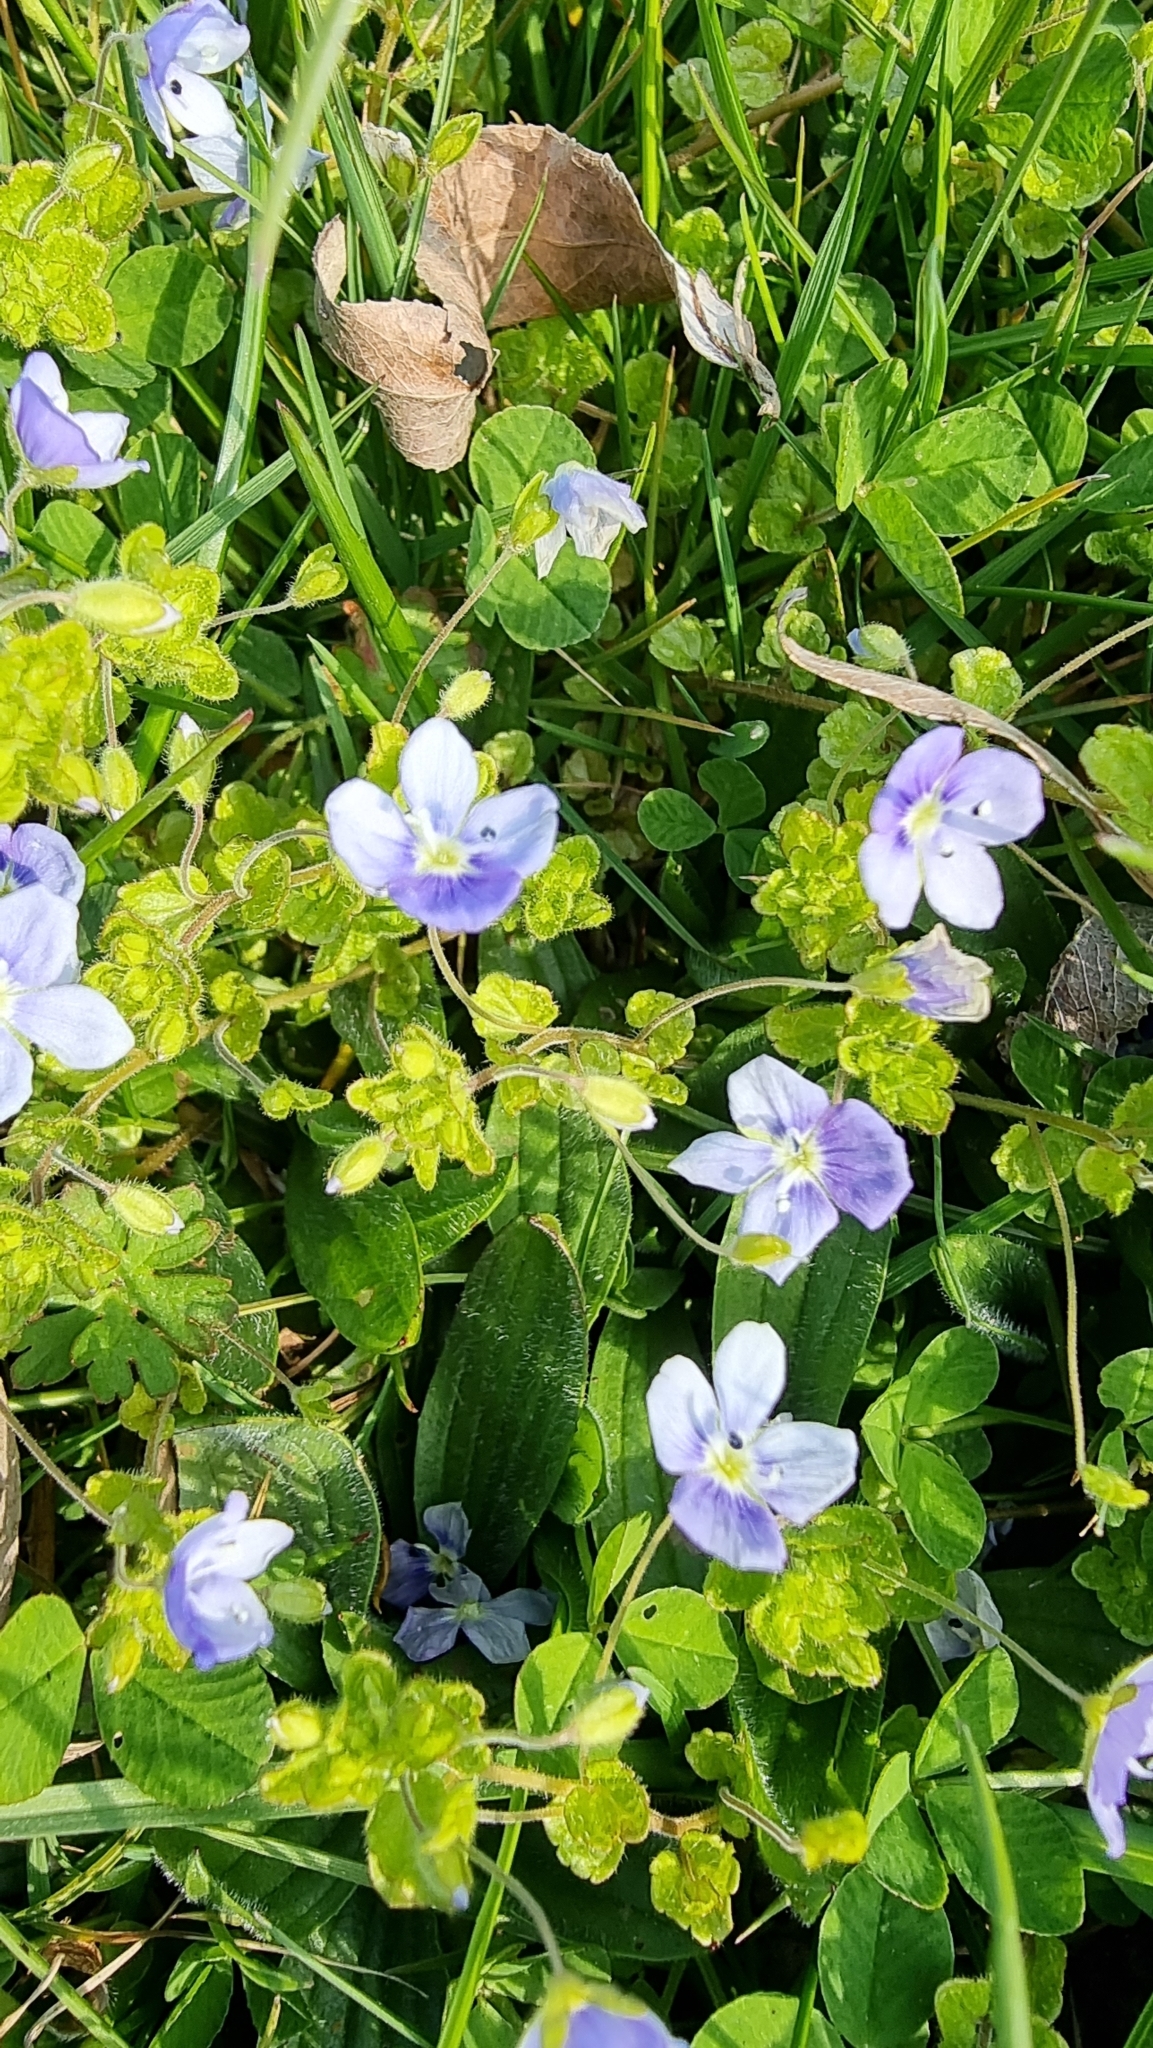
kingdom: Plantae
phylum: Tracheophyta
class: Magnoliopsida
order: Lamiales
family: Plantaginaceae
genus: Veronica
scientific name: Veronica filiformis
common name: Slender speedwell
